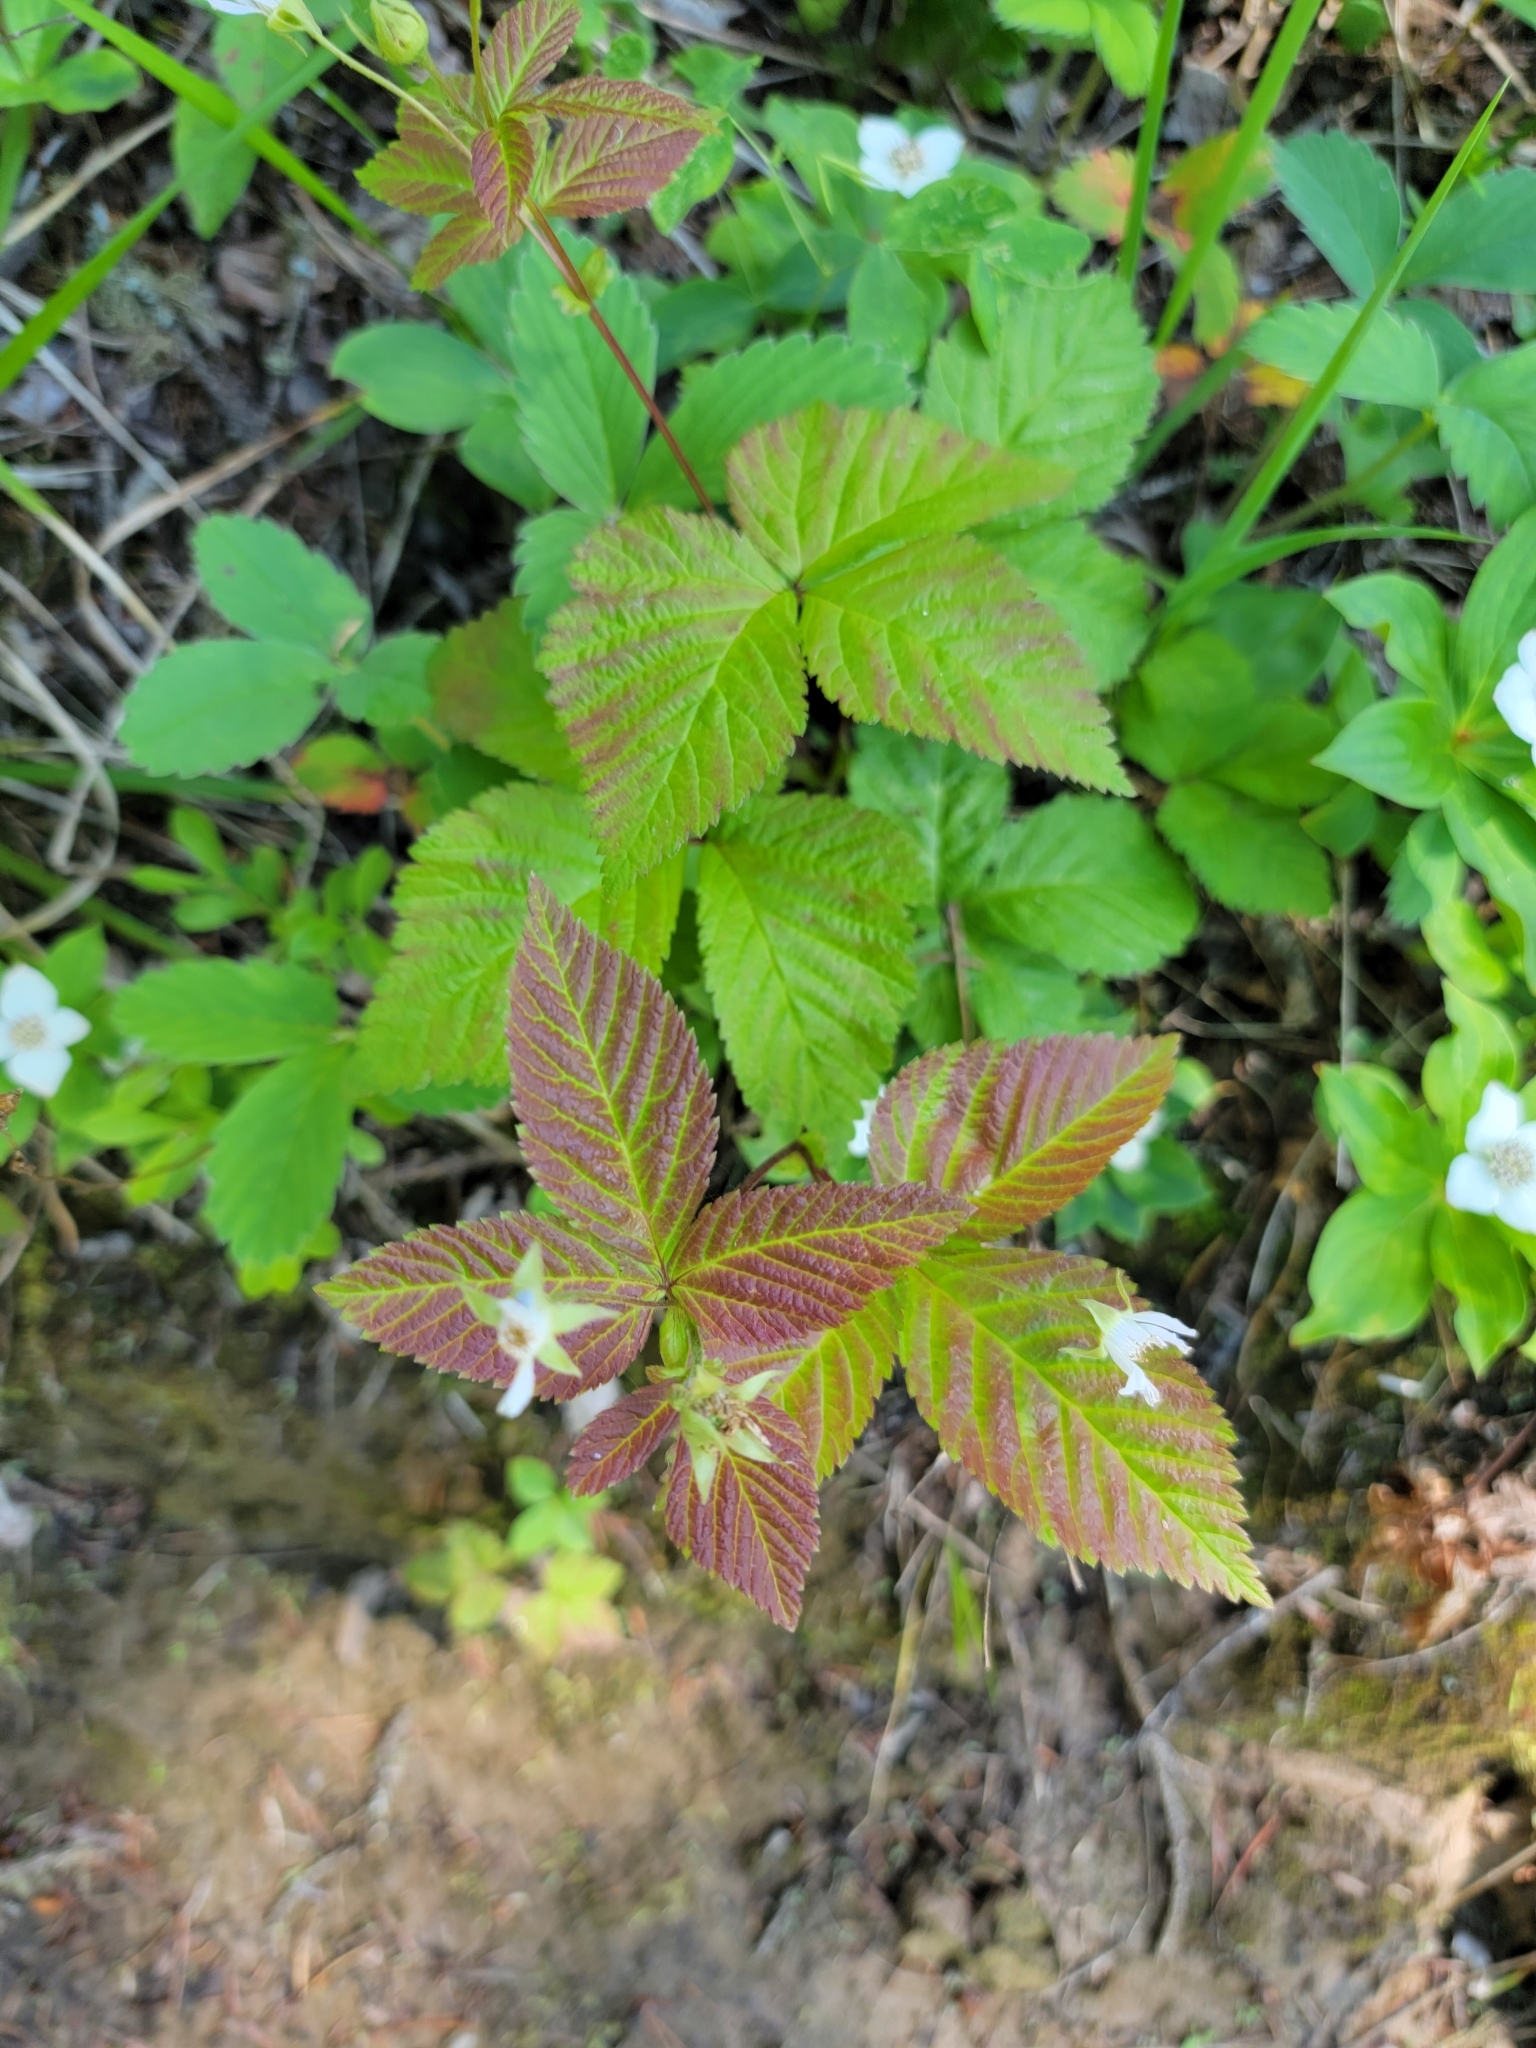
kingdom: Plantae
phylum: Tracheophyta
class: Magnoliopsida
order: Rosales
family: Rosaceae
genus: Rubus
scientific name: Rubus pubescens
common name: Dwarf raspberry
